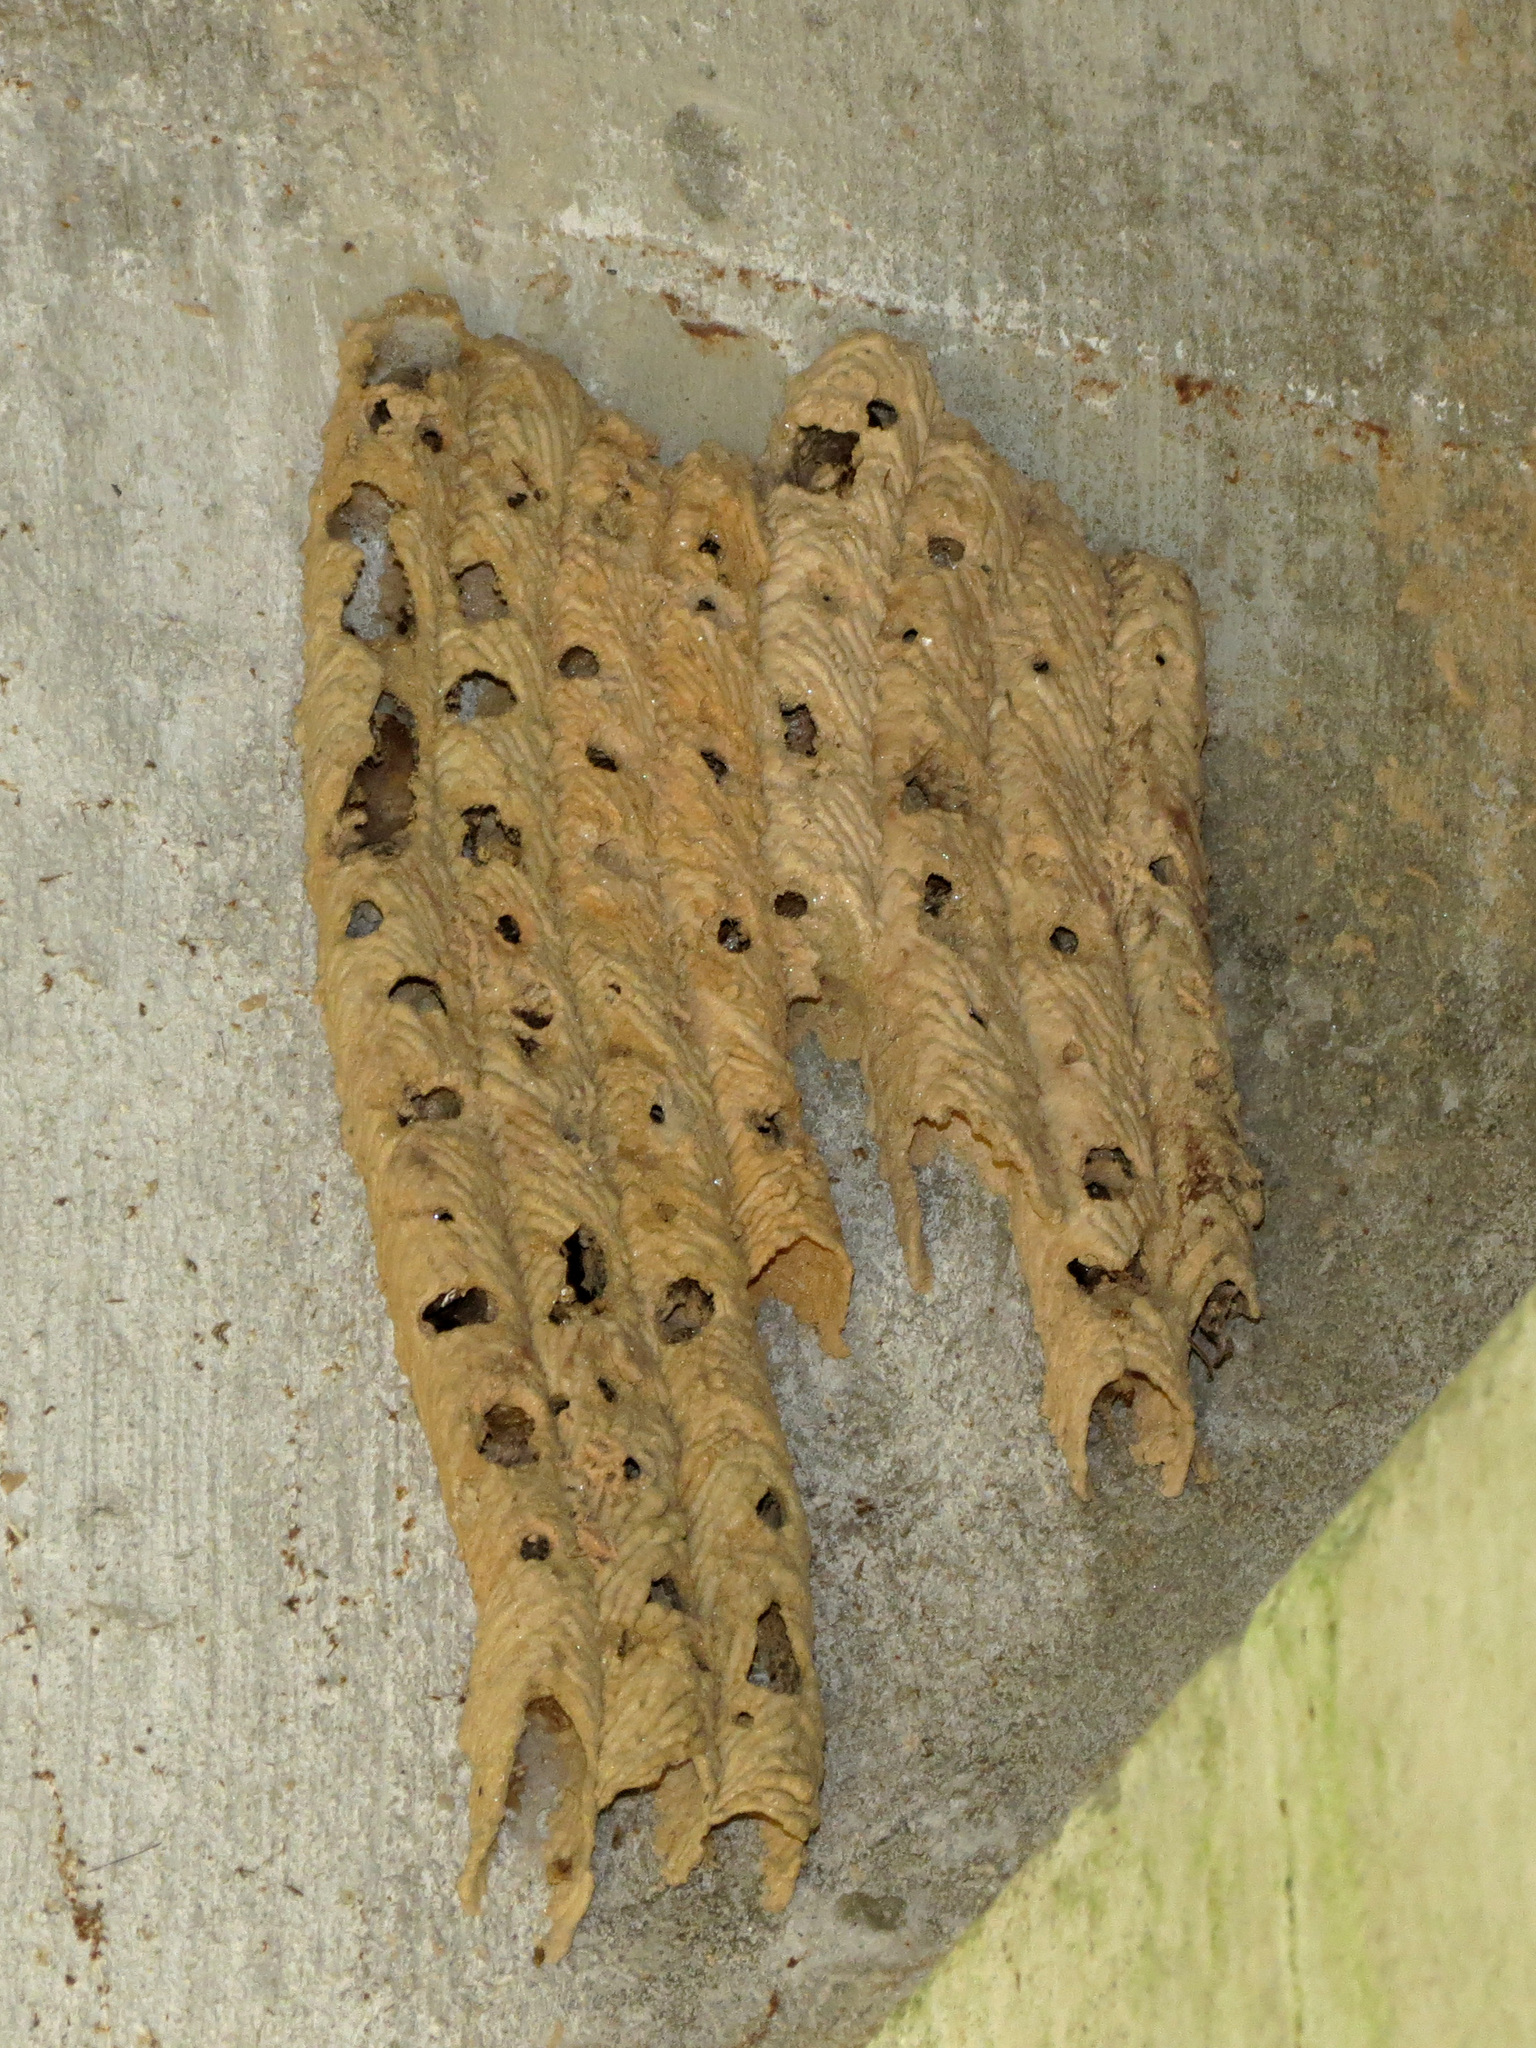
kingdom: Animalia
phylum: Arthropoda
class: Insecta
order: Hymenoptera
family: Crabronidae
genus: Trypoxylon
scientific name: Trypoxylon politum
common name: Organ-pipe mud-dauber wasp
